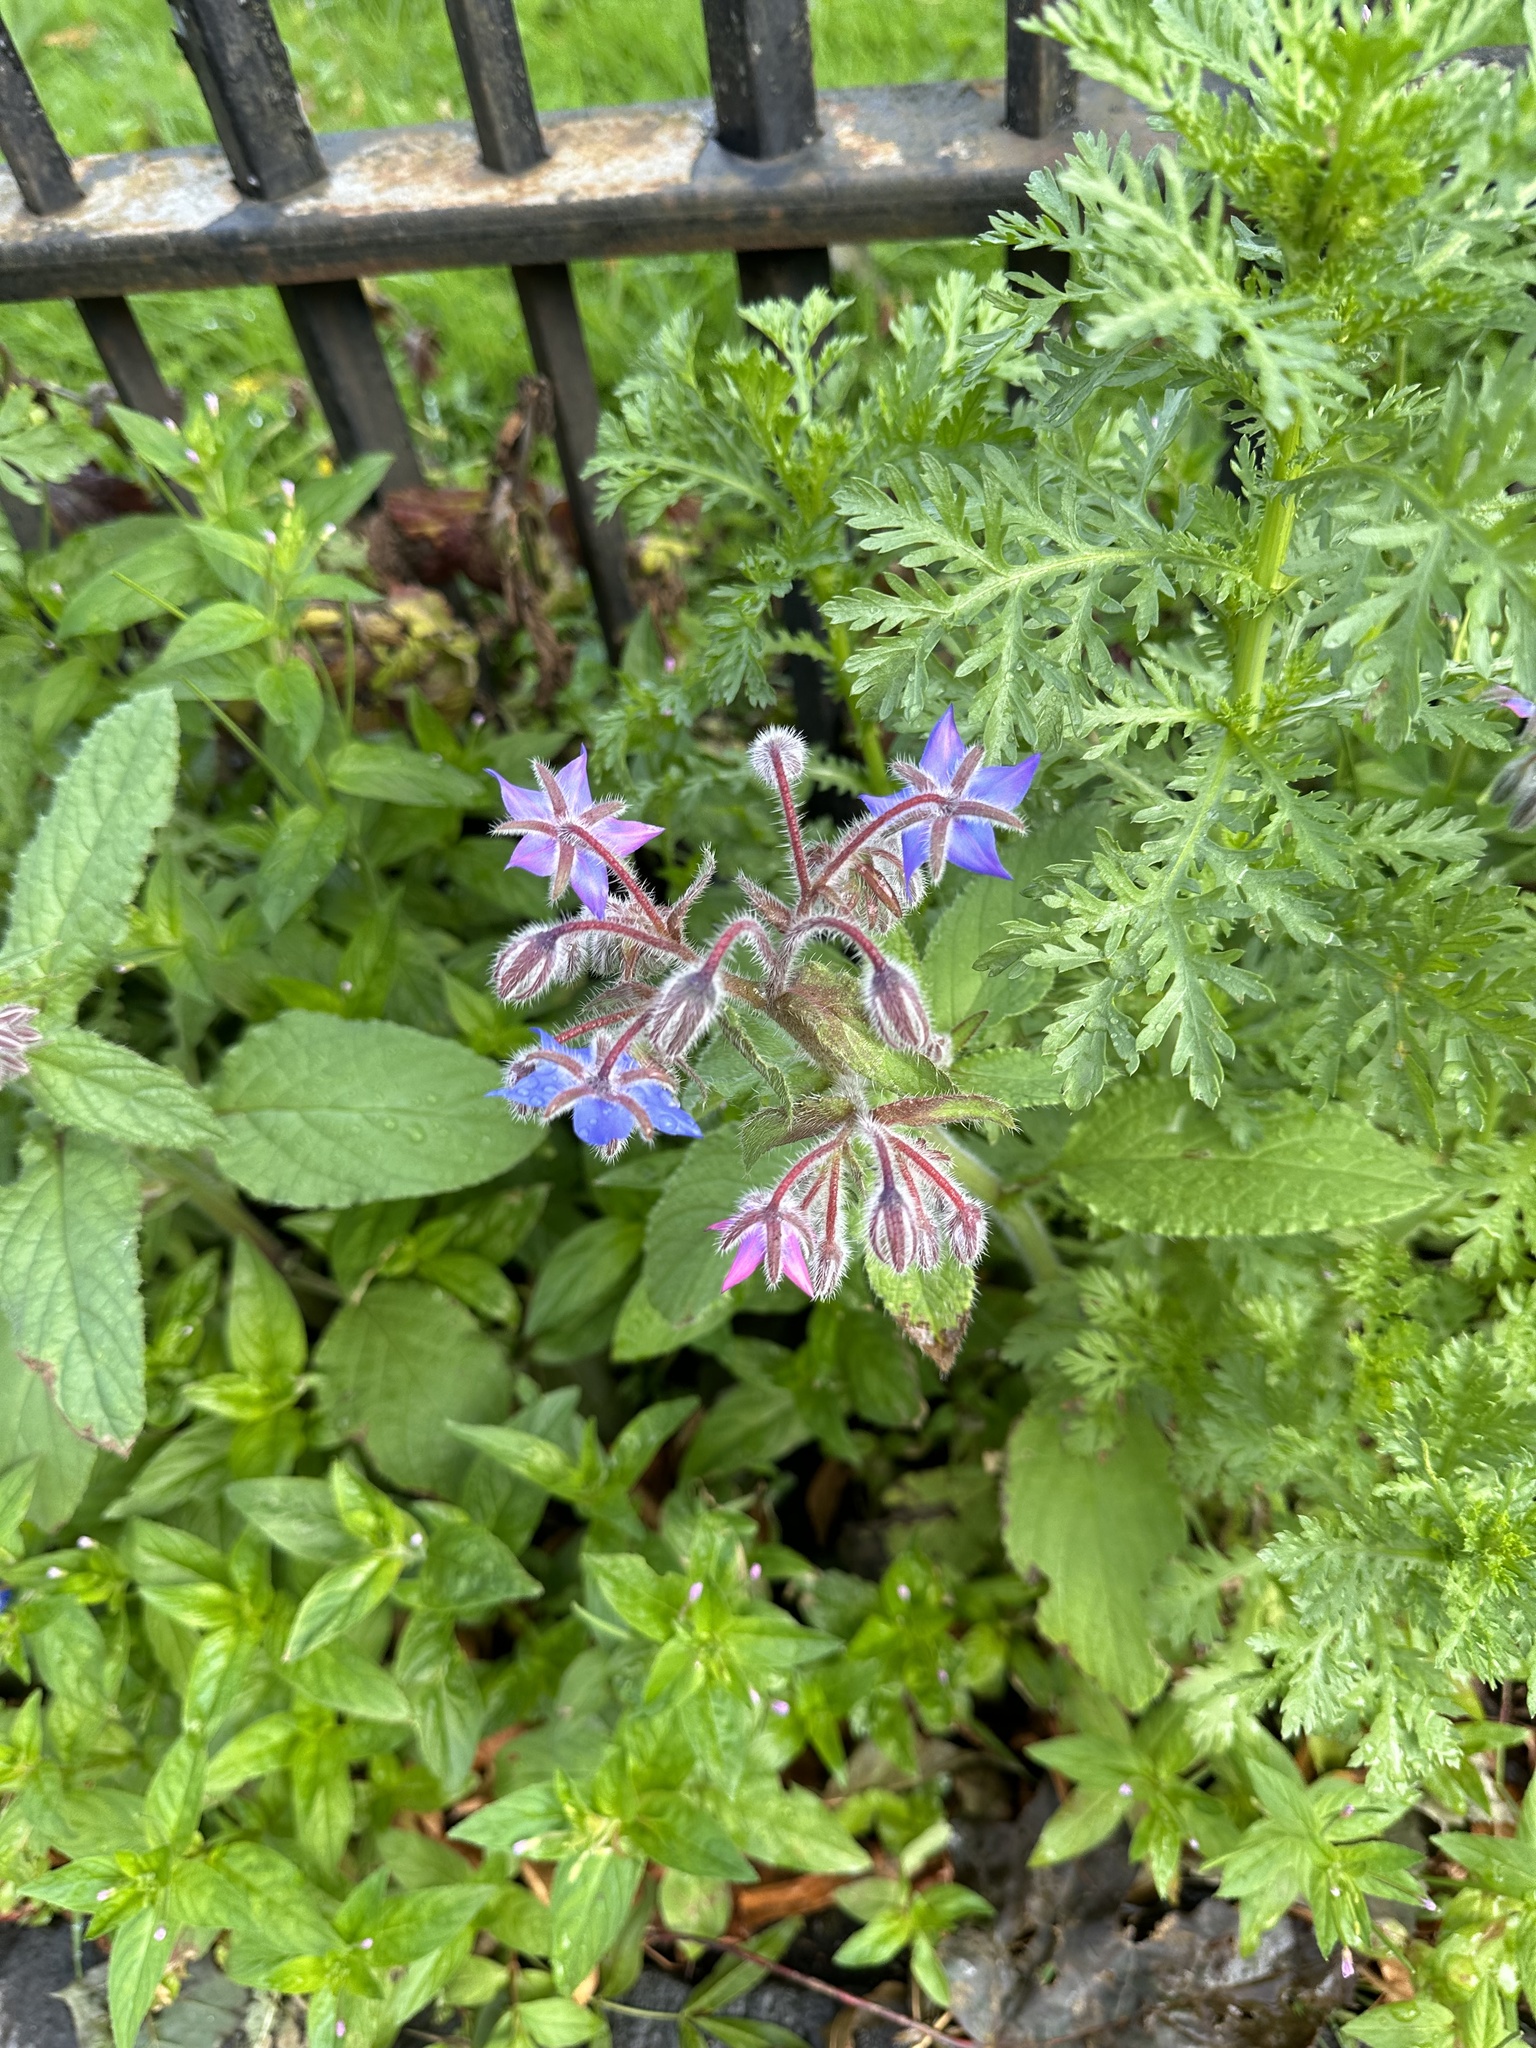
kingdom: Plantae
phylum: Tracheophyta
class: Magnoliopsida
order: Boraginales
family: Boraginaceae
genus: Borago
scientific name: Borago officinalis
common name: Borage
